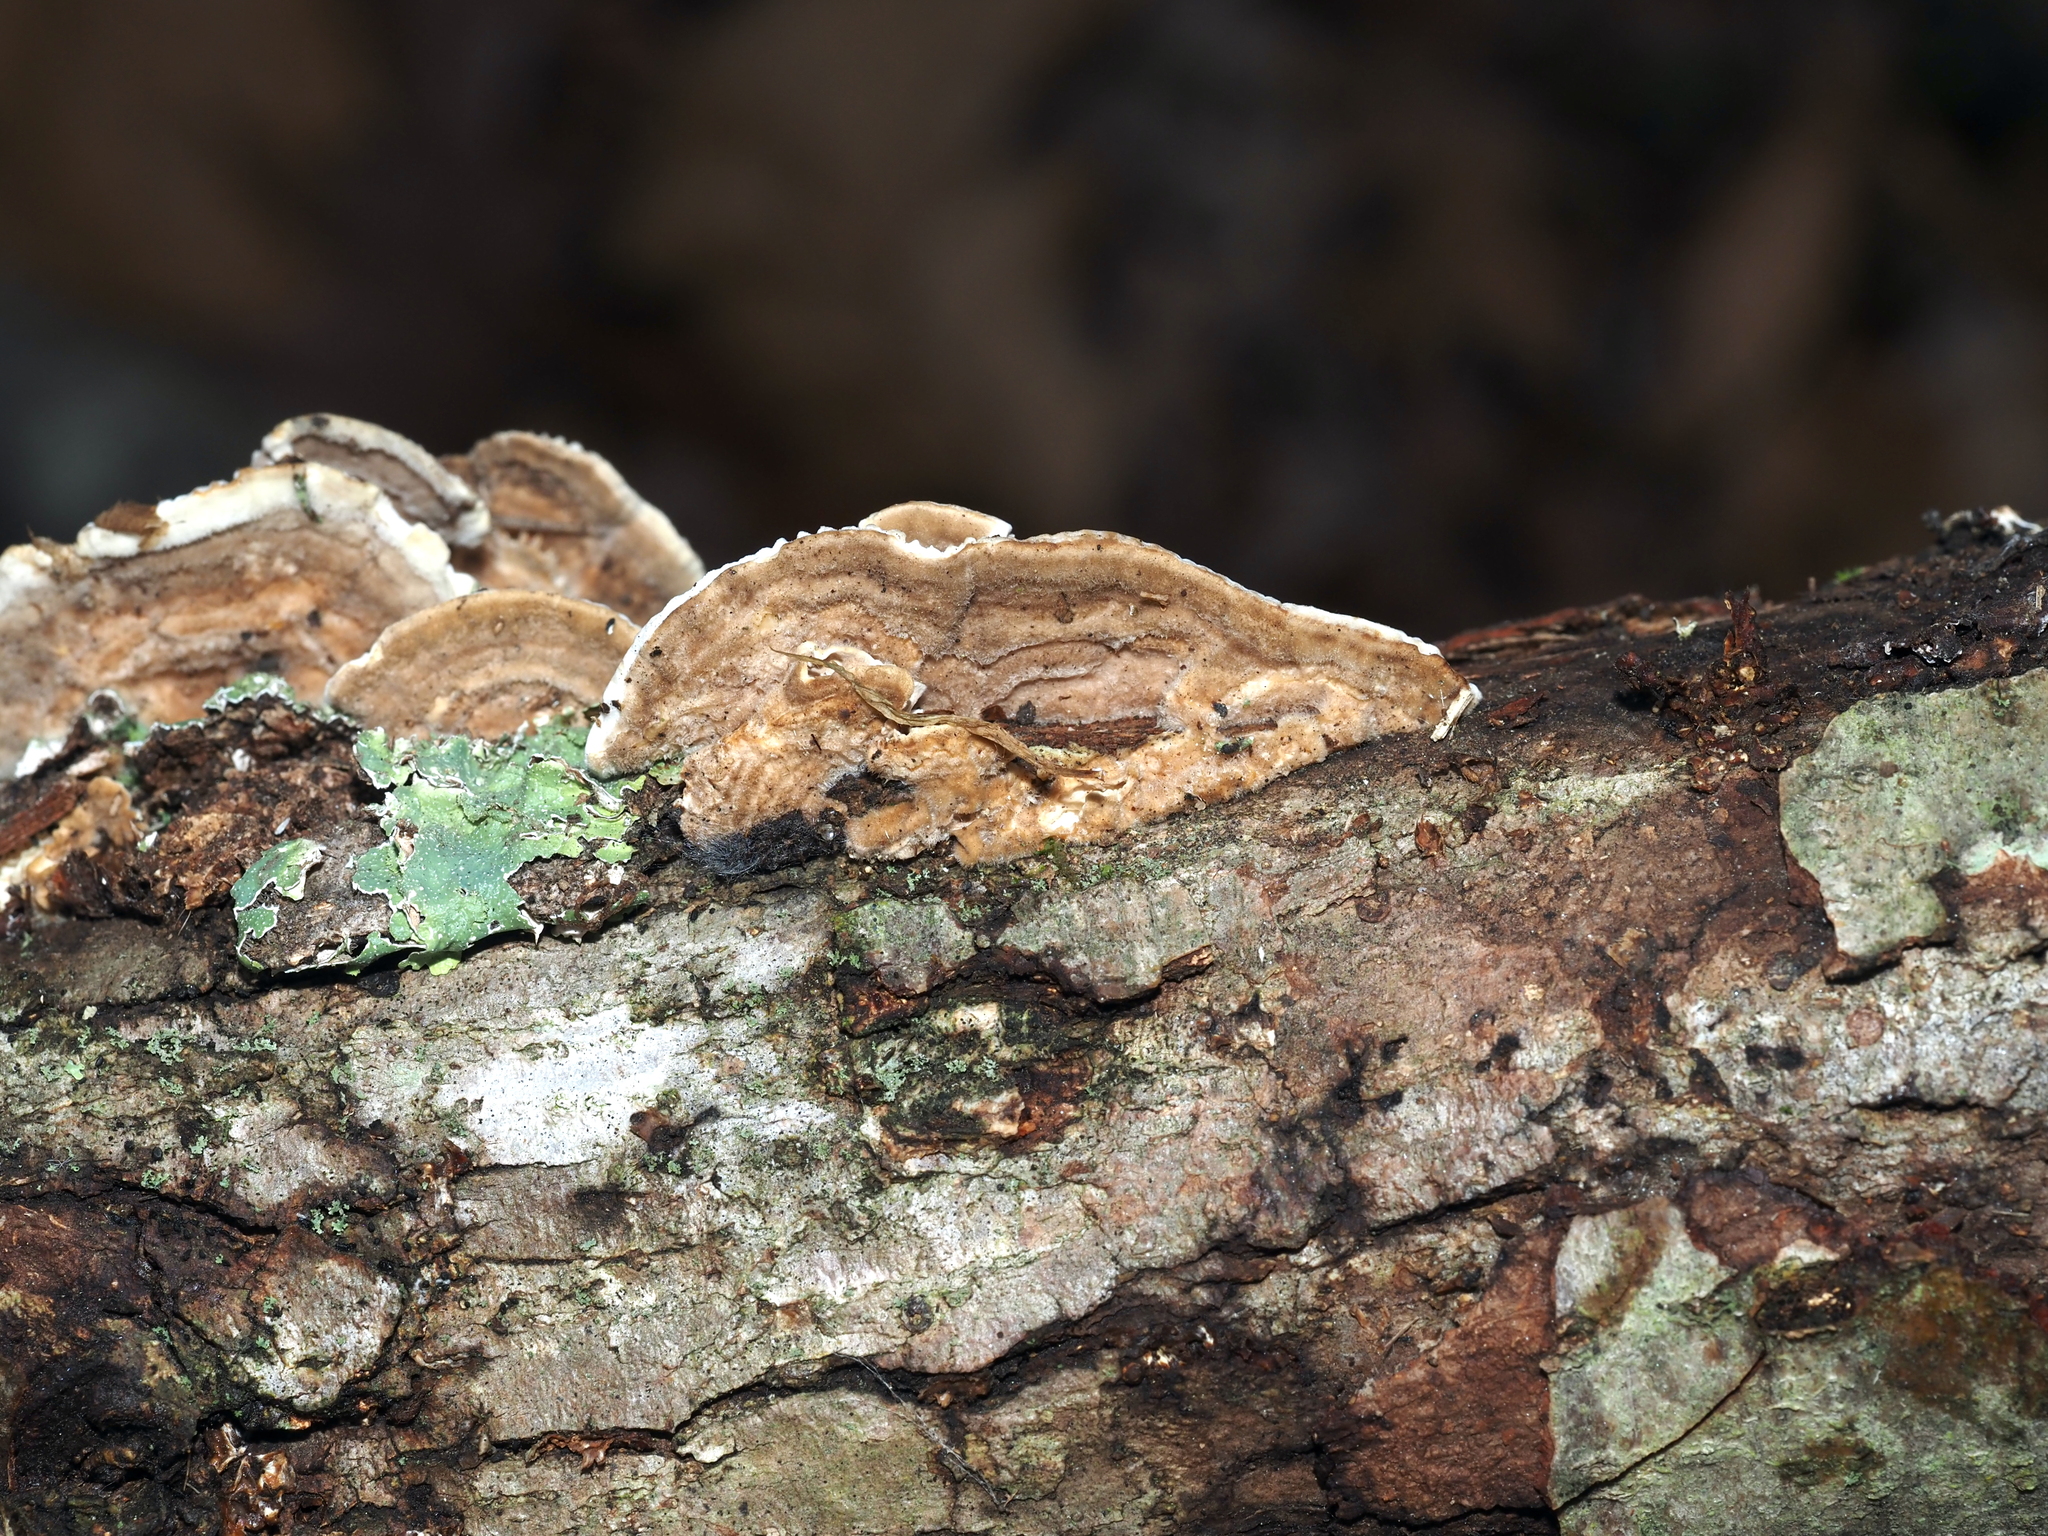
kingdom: Fungi
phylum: Basidiomycota
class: Agaricomycetes
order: Polyporales
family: Polyporaceae
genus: Lenzites
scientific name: Lenzites betulinus
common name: Birch mazegill
